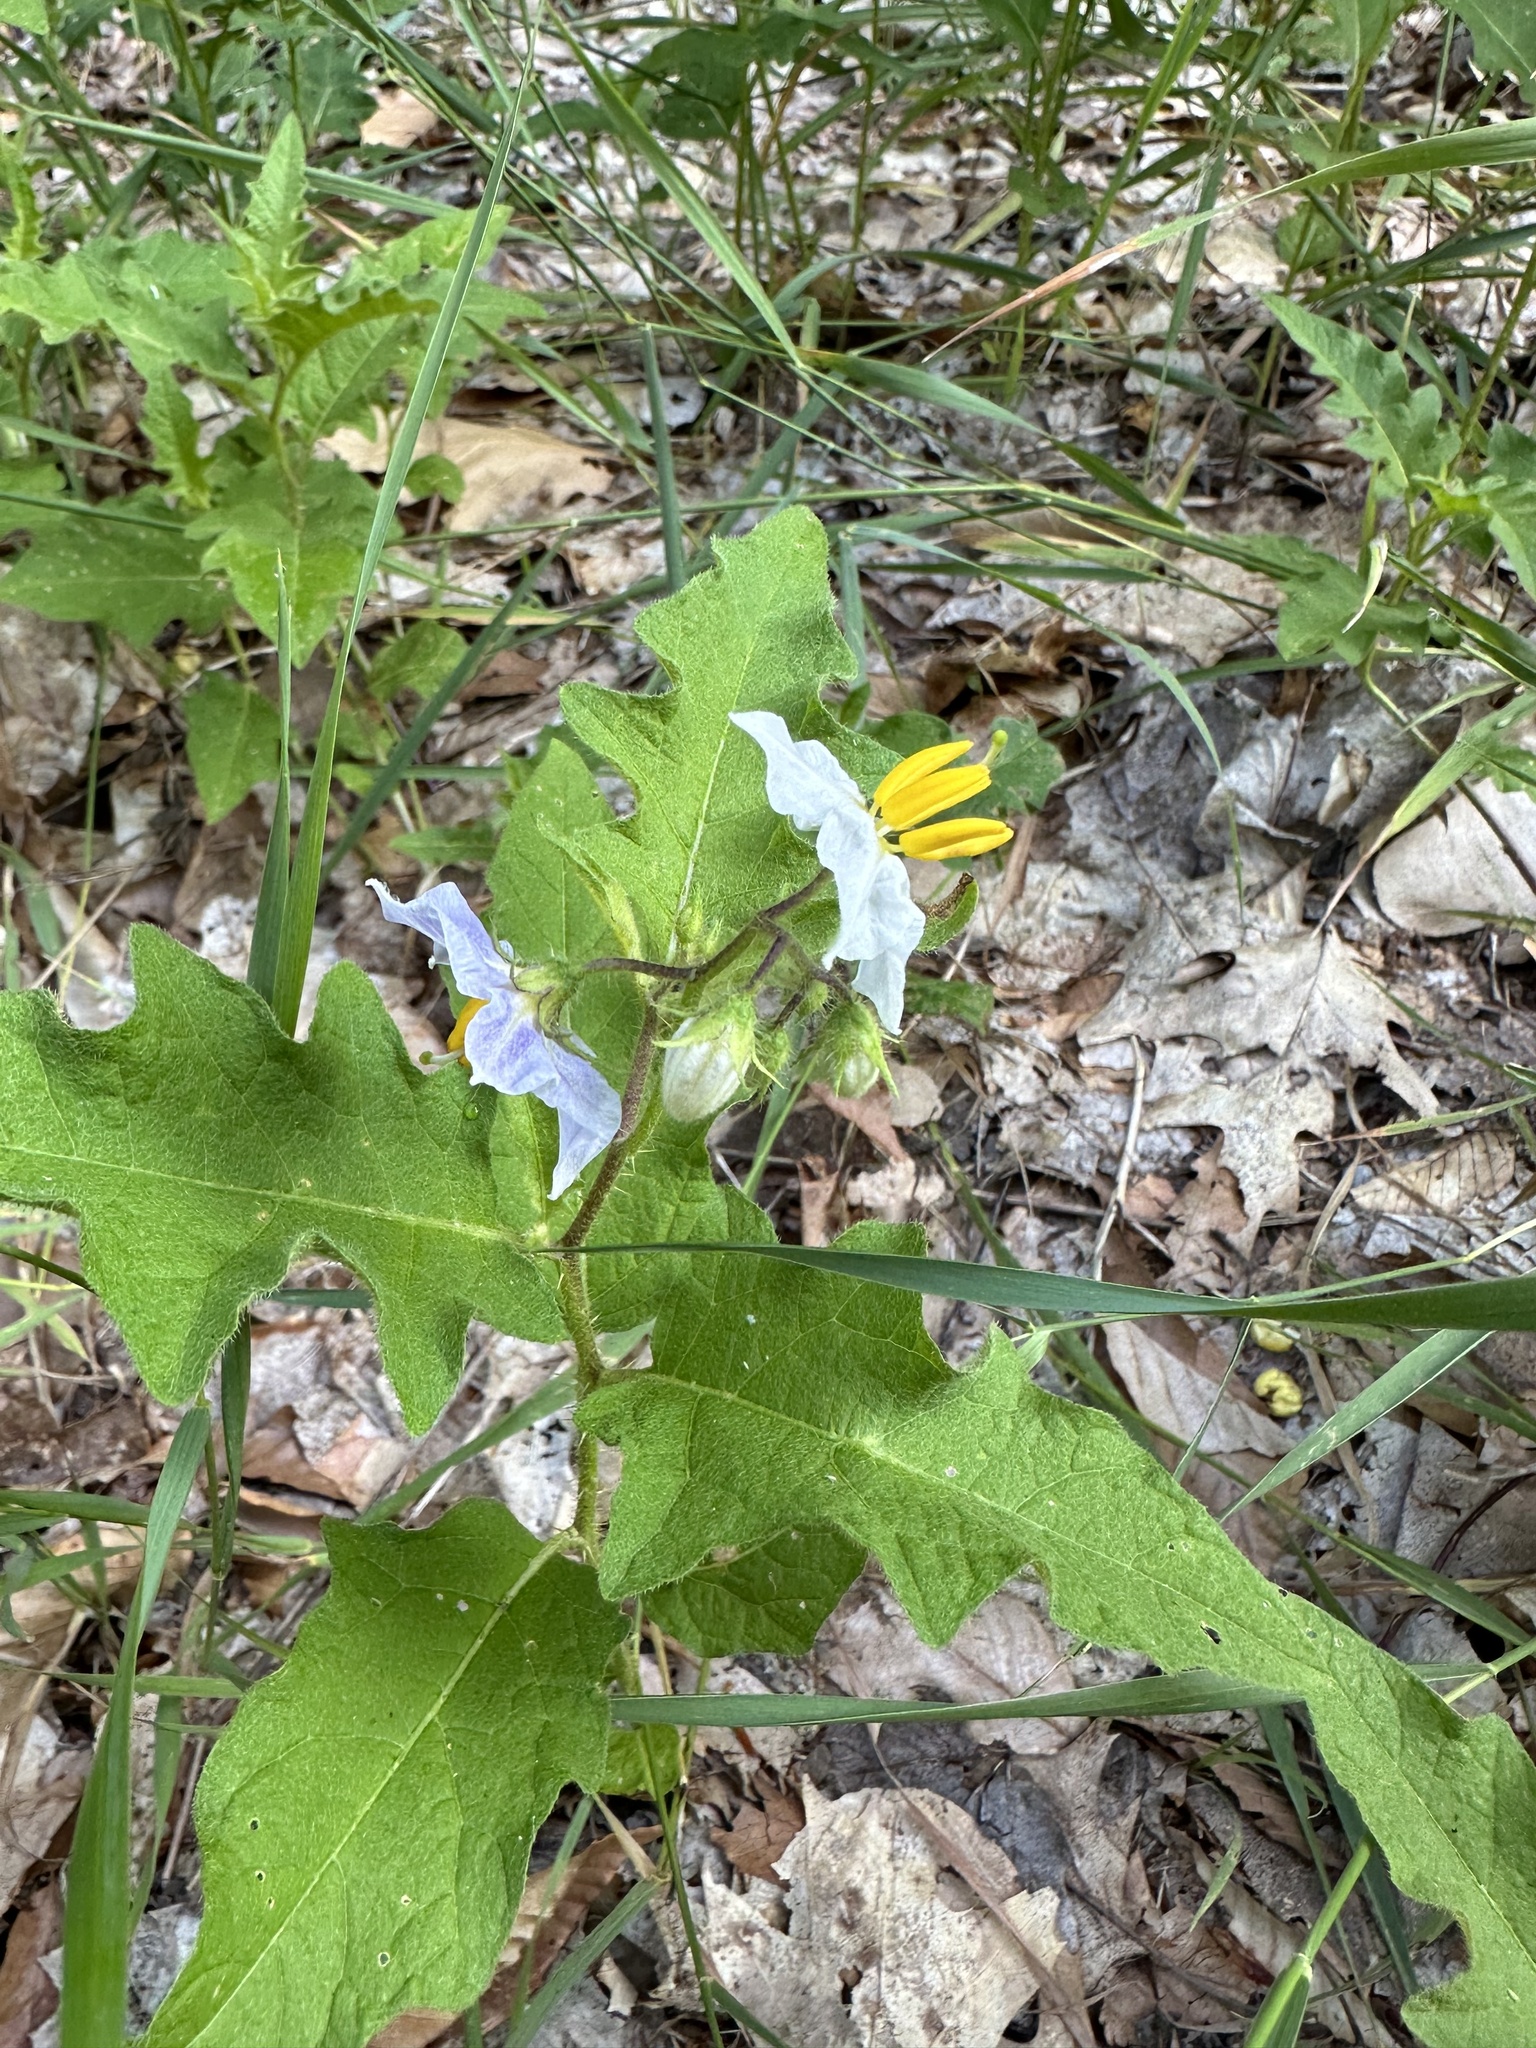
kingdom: Plantae
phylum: Tracheophyta
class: Magnoliopsida
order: Solanales
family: Solanaceae
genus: Solanum
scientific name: Solanum carolinense
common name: Horse-nettle
